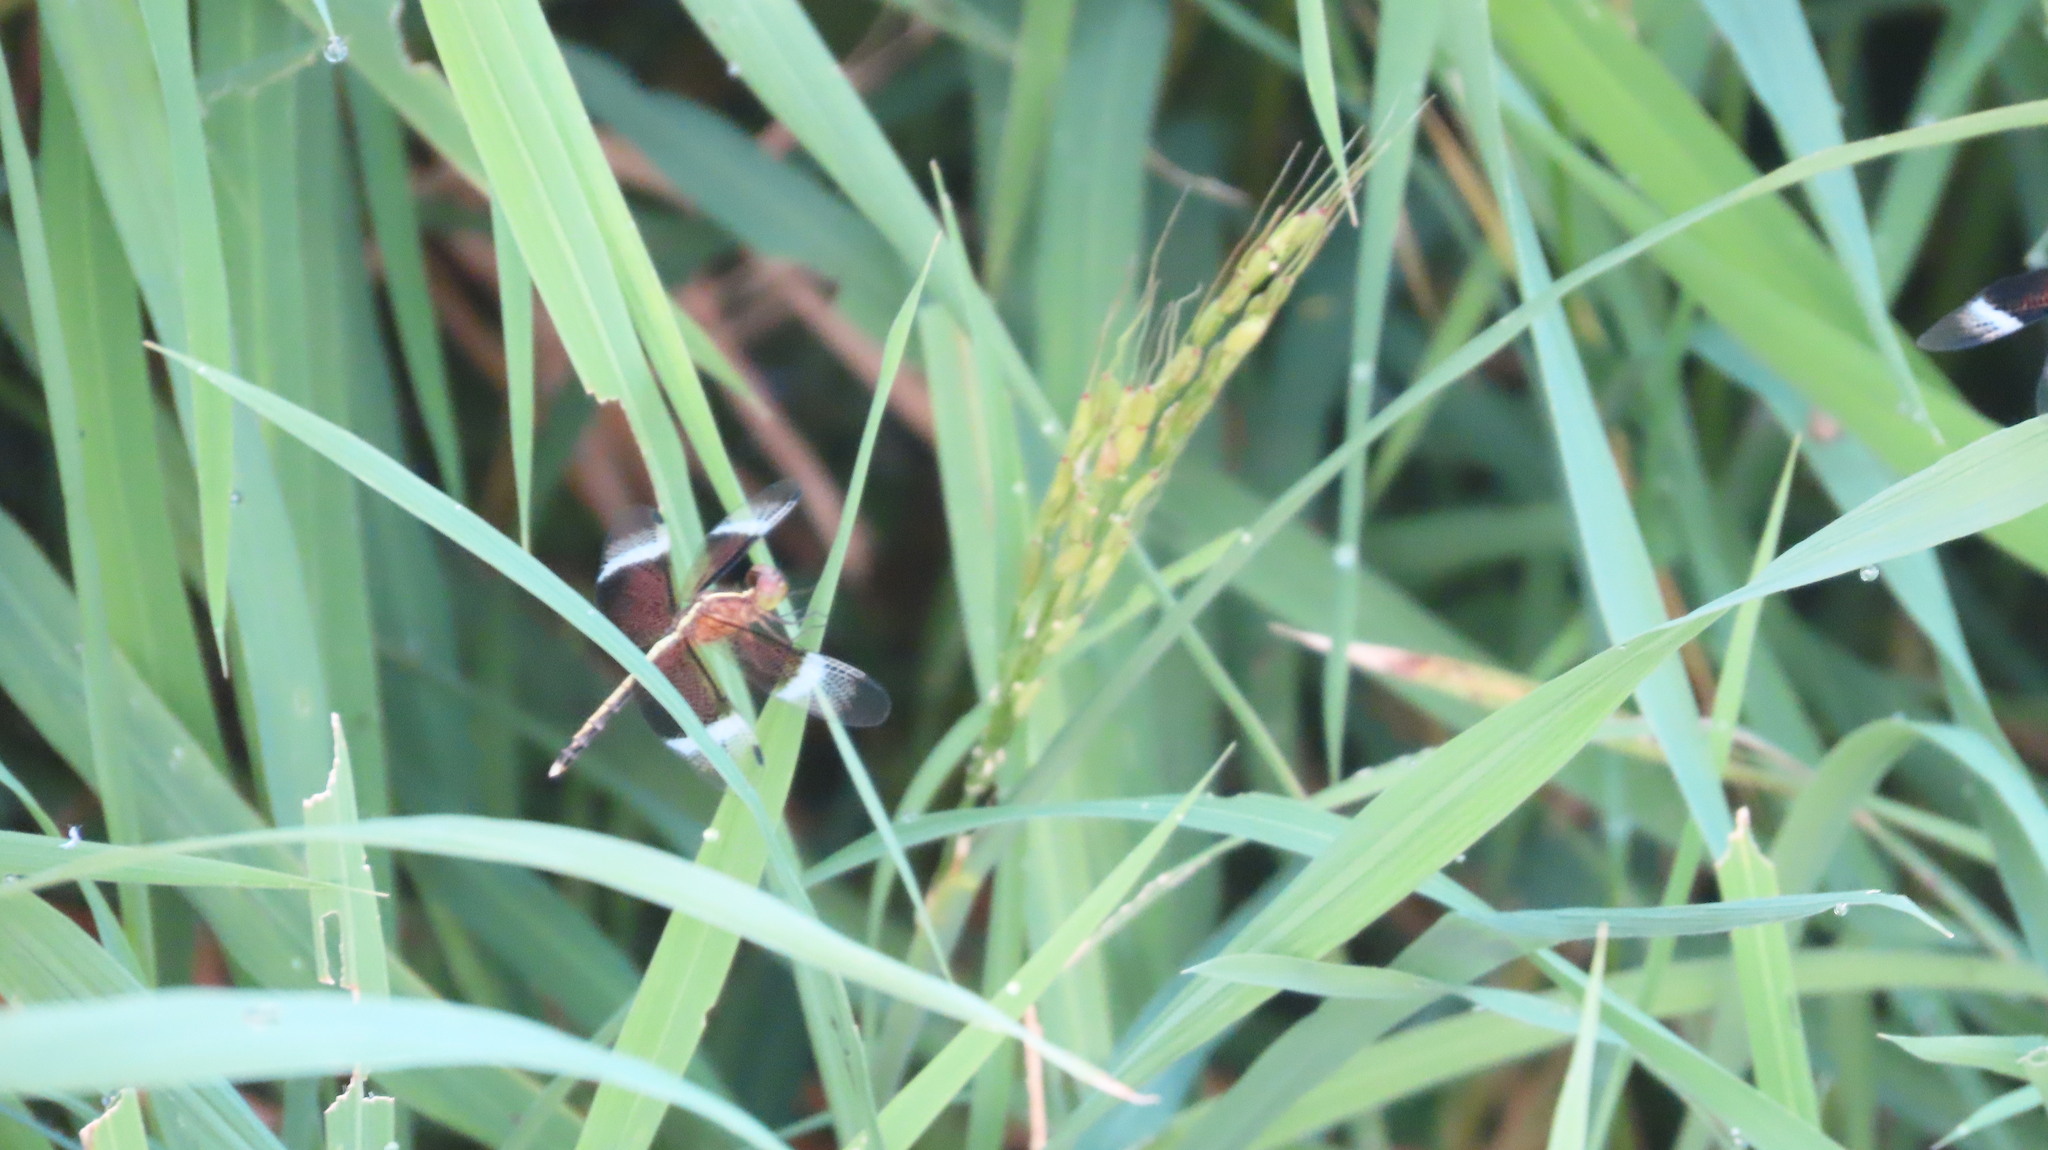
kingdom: Animalia
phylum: Arthropoda
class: Insecta
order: Odonata
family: Libellulidae
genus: Neurothemis
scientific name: Neurothemis tullia
